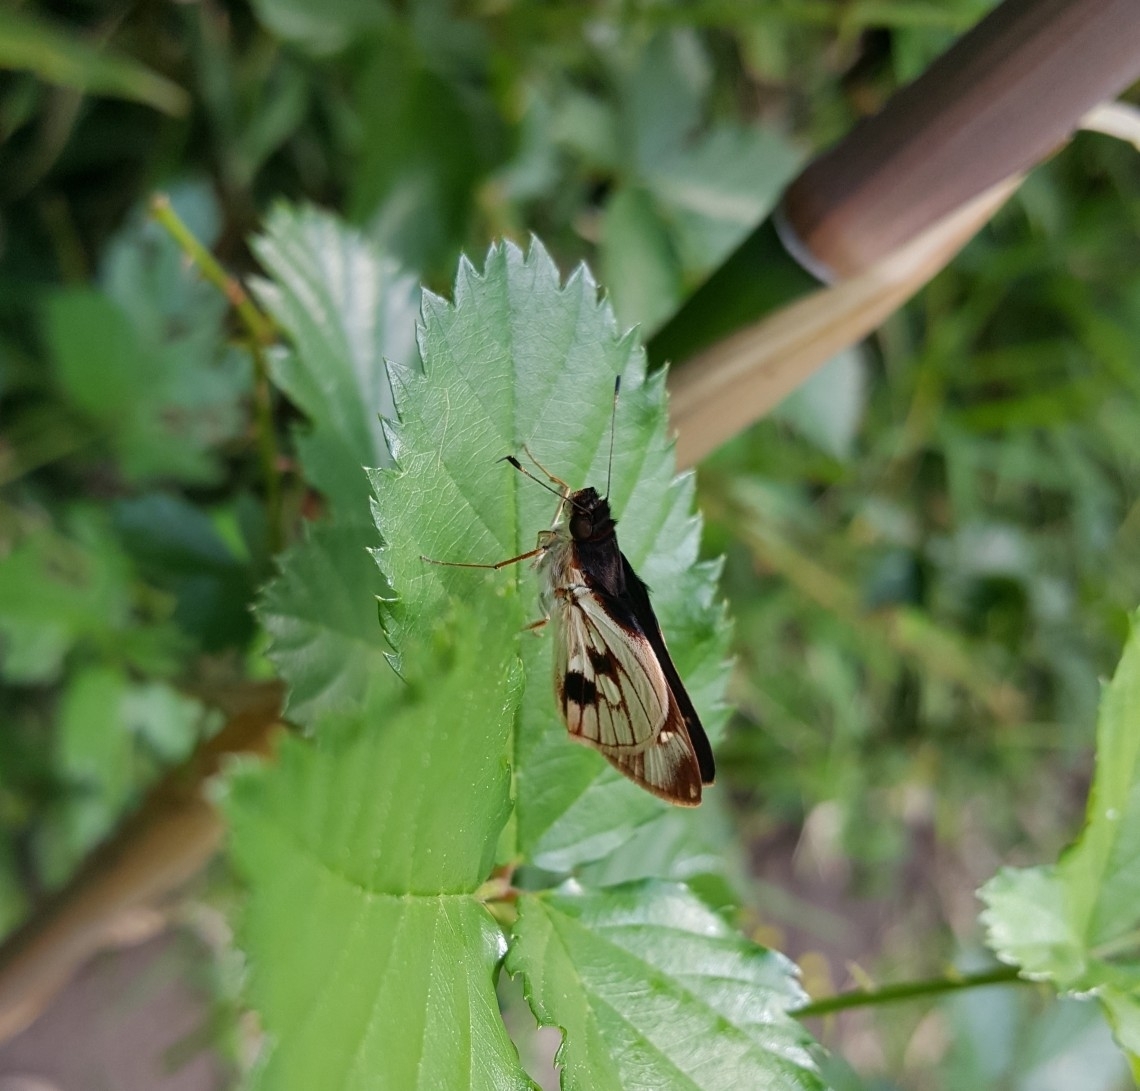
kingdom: Animalia
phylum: Arthropoda
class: Insecta
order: Lepidoptera
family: Hesperiidae
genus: Troyus
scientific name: Troyus fantasos
